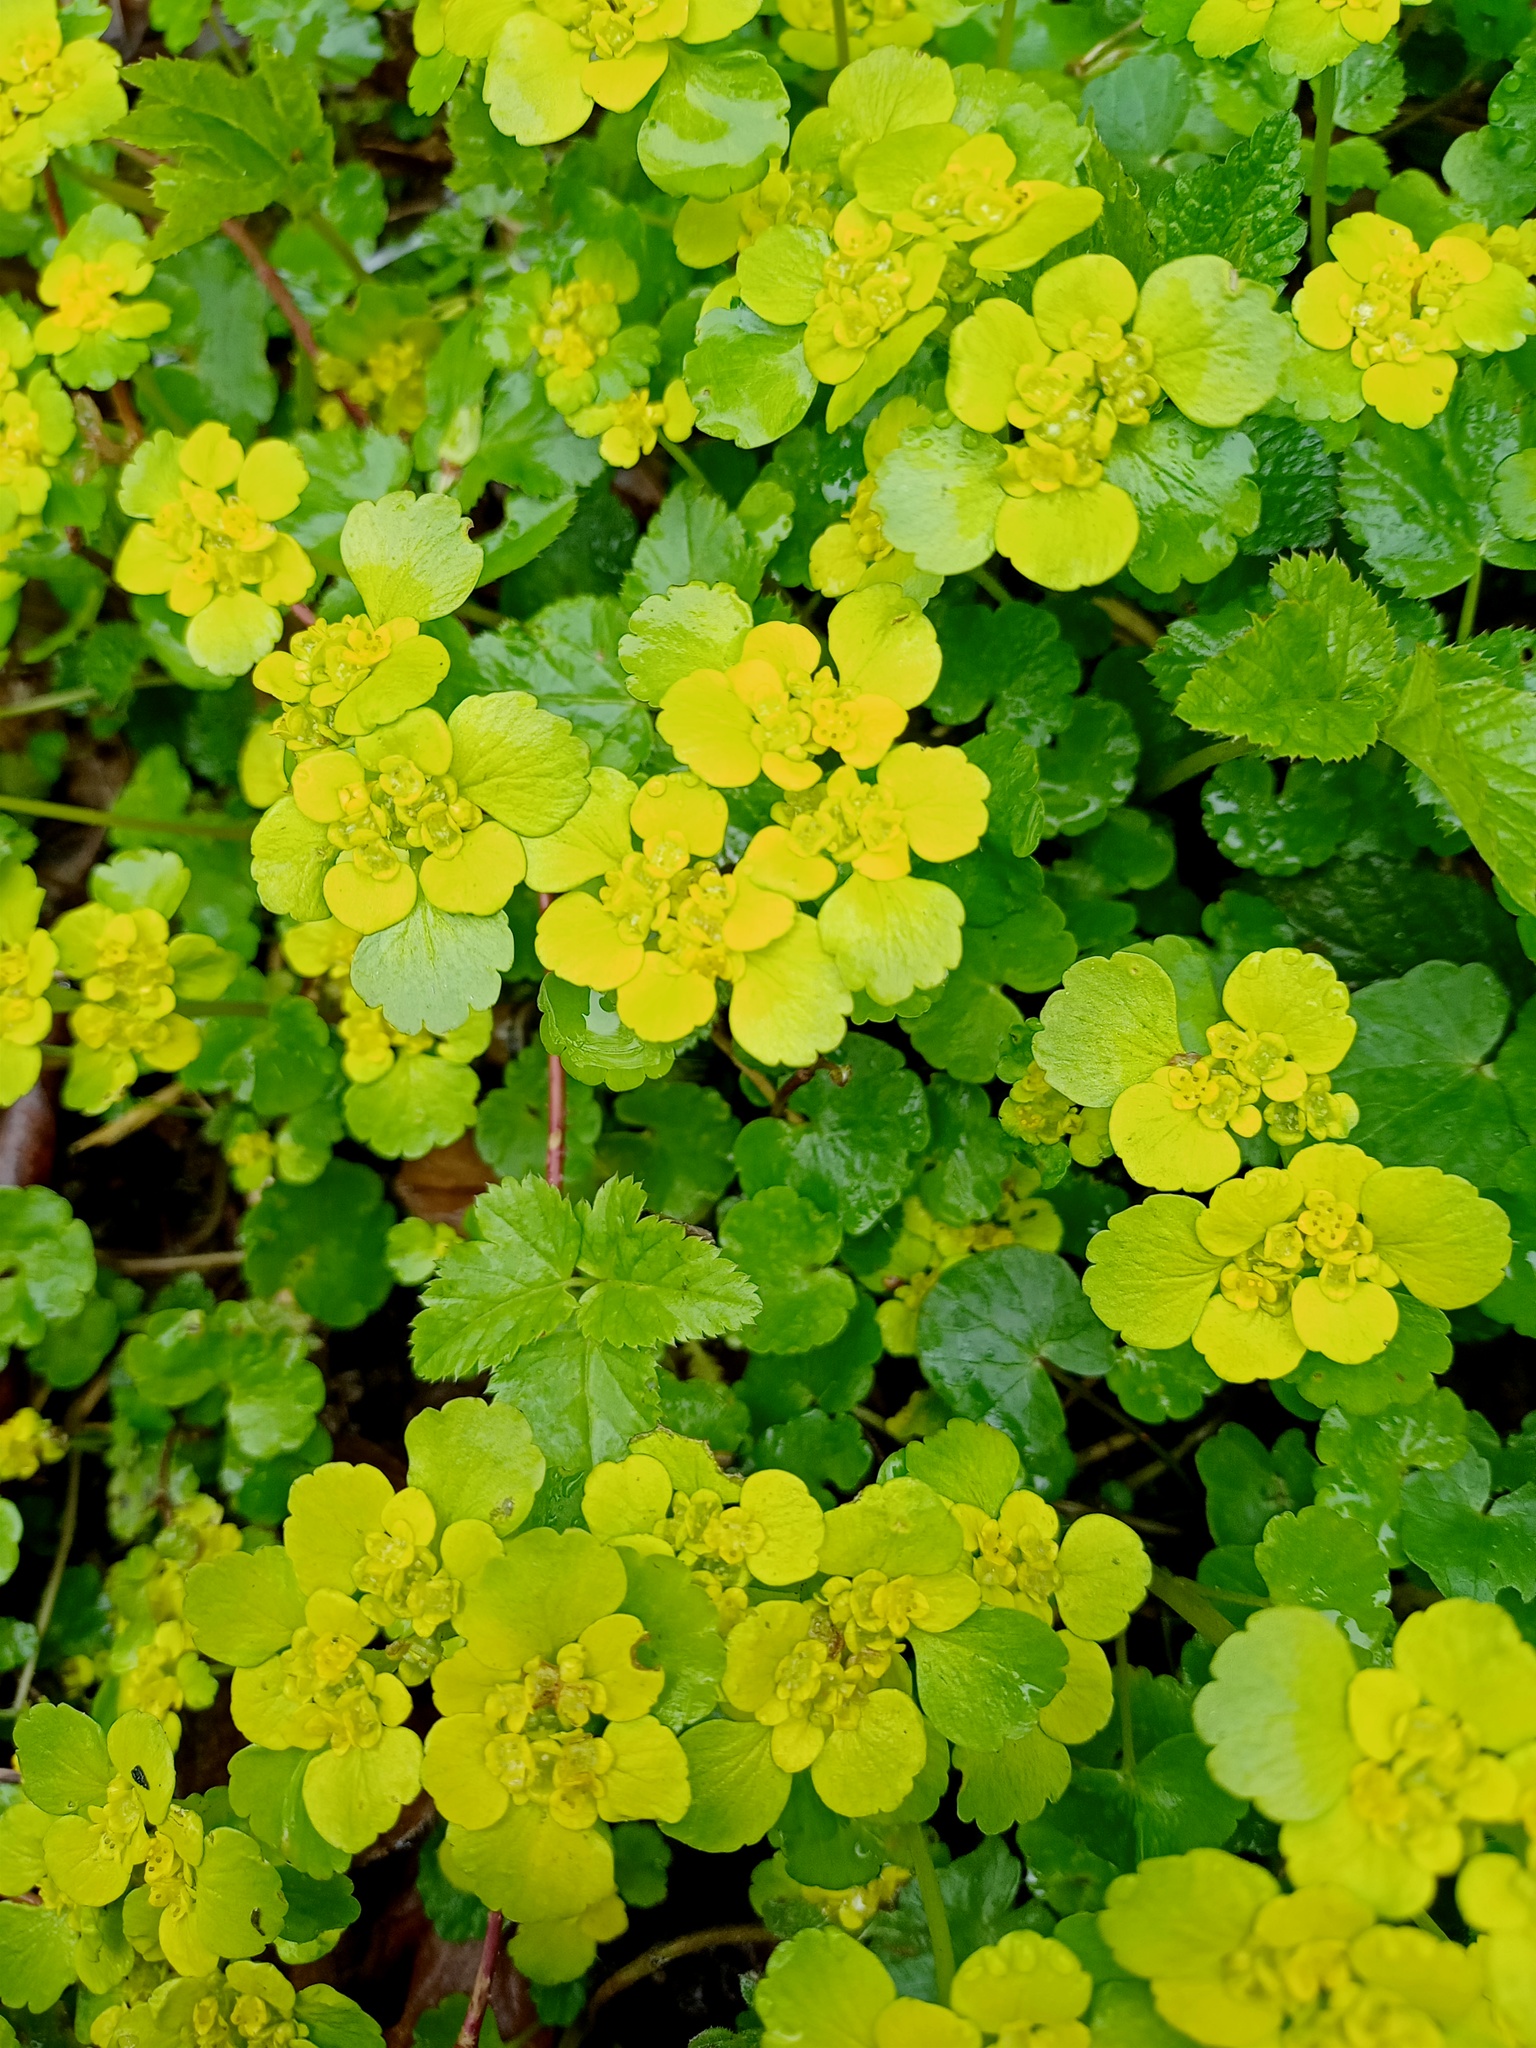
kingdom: Plantae
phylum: Tracheophyta
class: Magnoliopsida
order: Saxifragales
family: Saxifragaceae
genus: Chrysosplenium
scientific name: Chrysosplenium alternifolium
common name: Alternate-leaved golden-saxifrage
